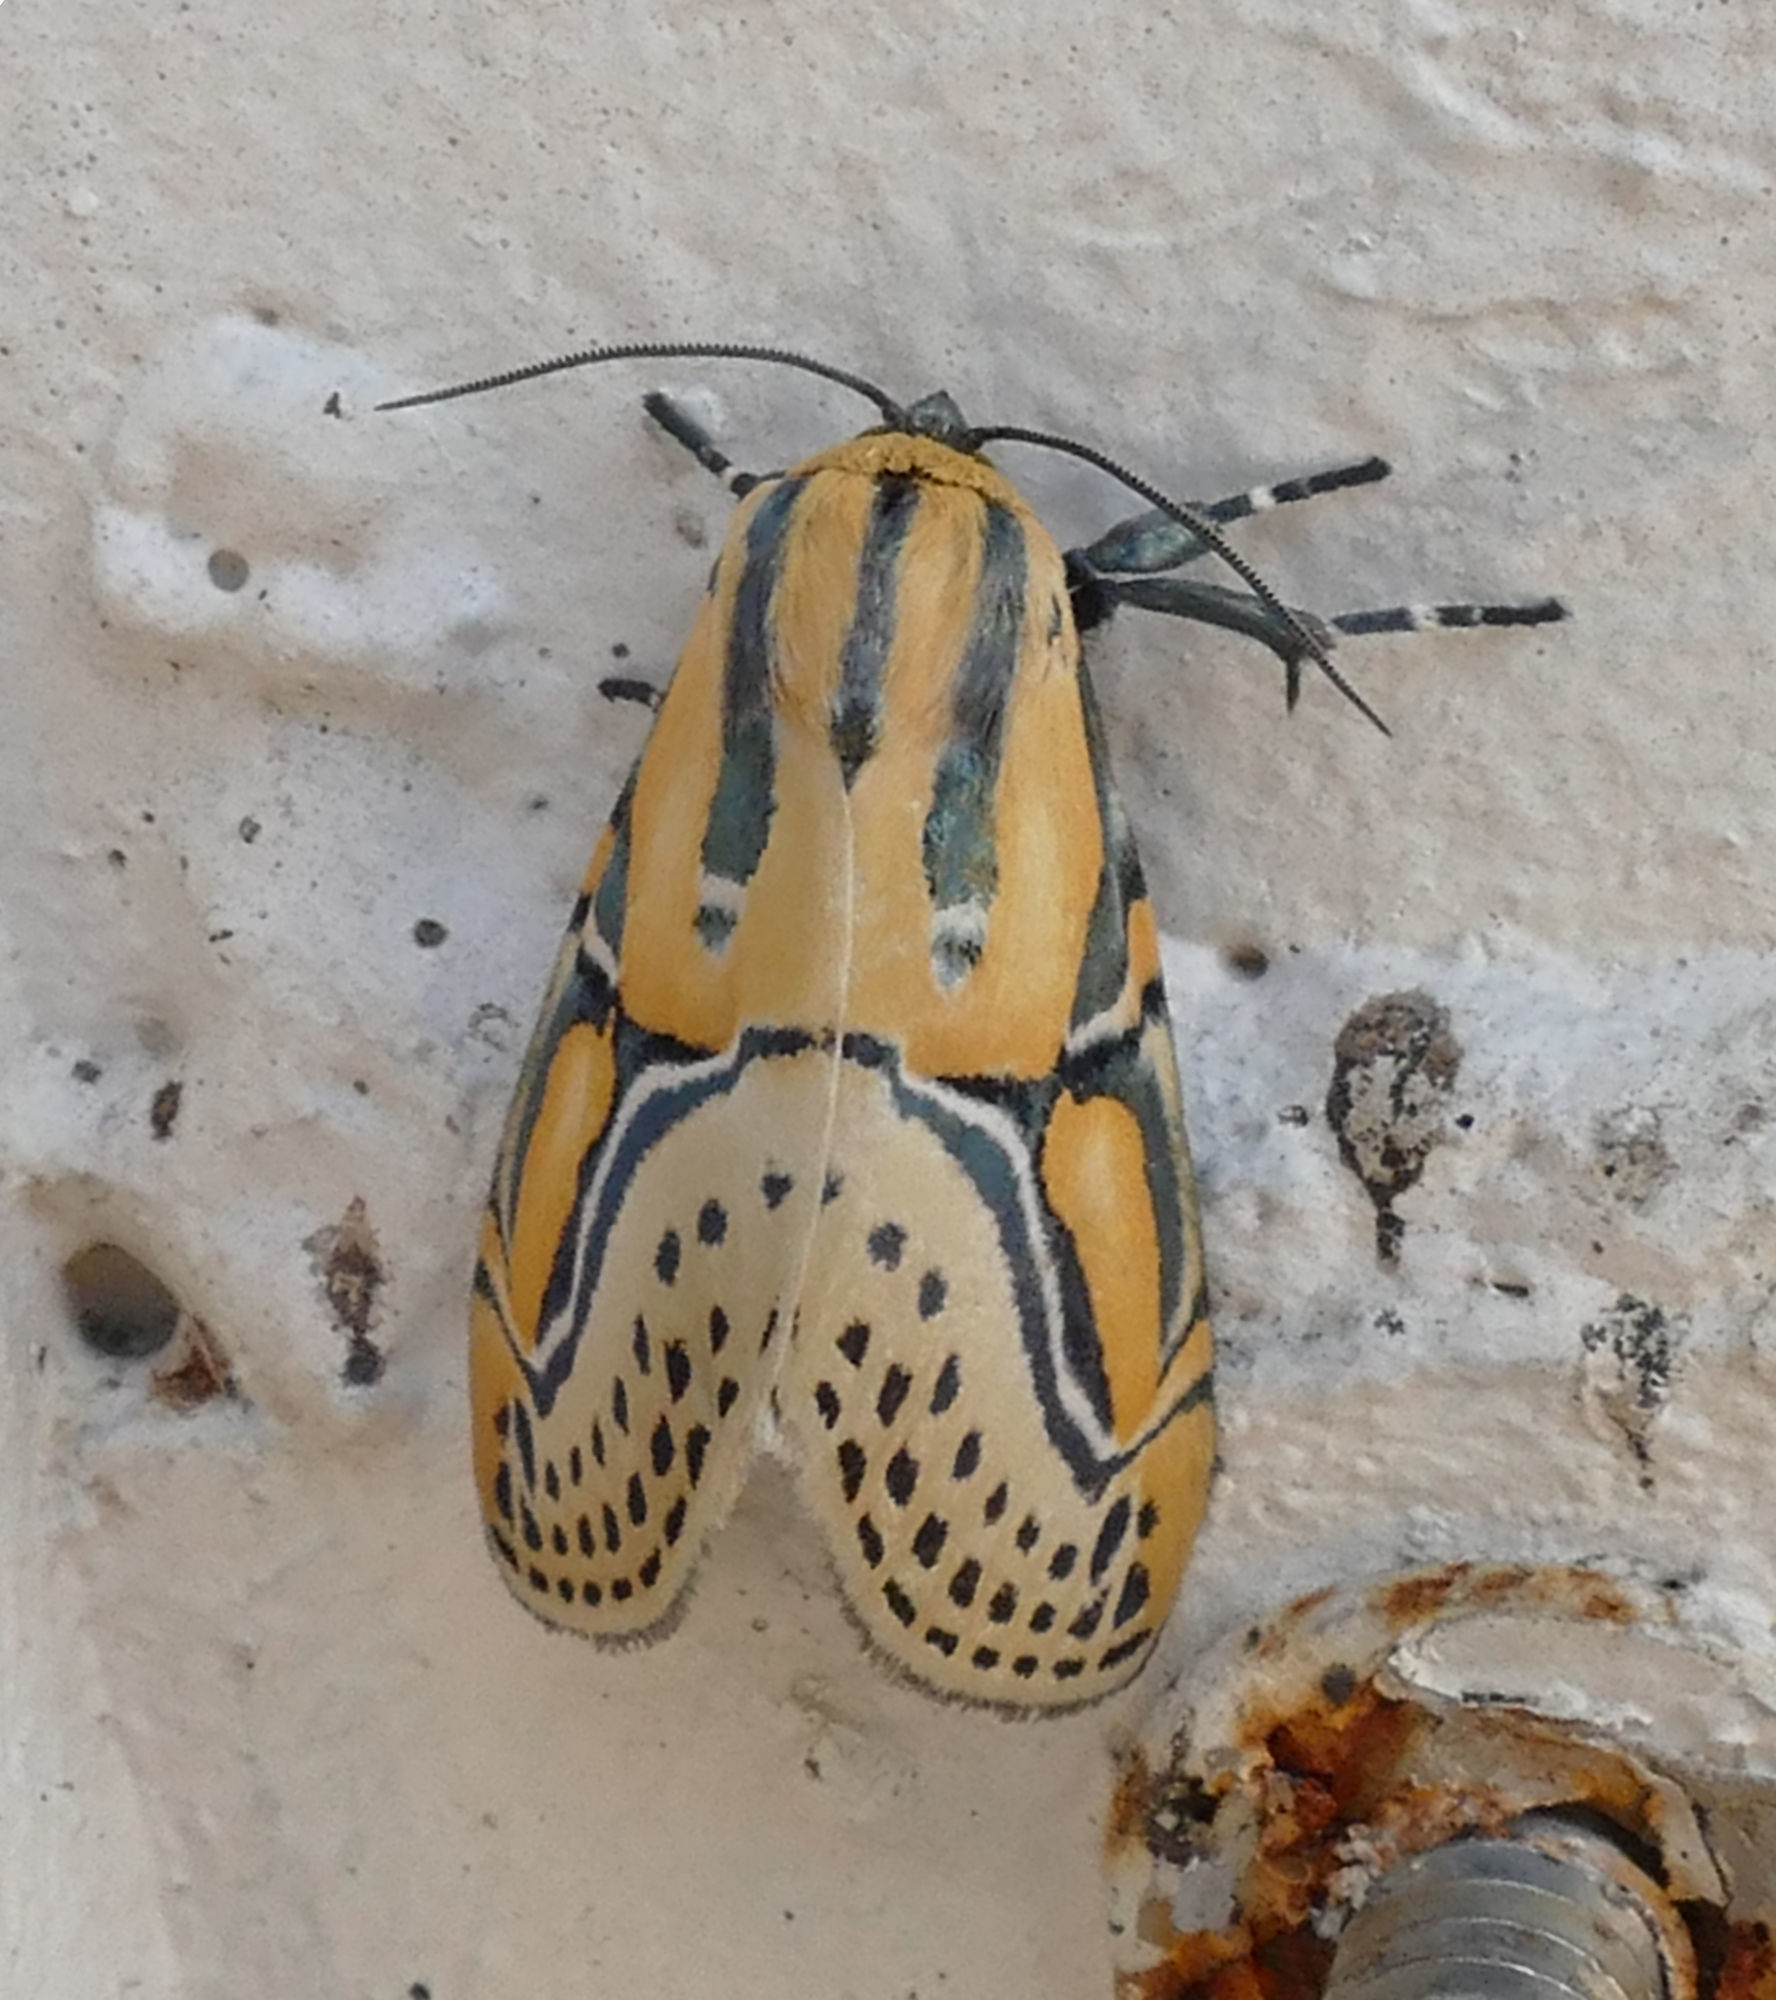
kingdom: Animalia
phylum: Arthropoda
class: Insecta
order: Lepidoptera
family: Erebidae
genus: Diphthera
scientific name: Diphthera festiva
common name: Hieroglyphic moth
